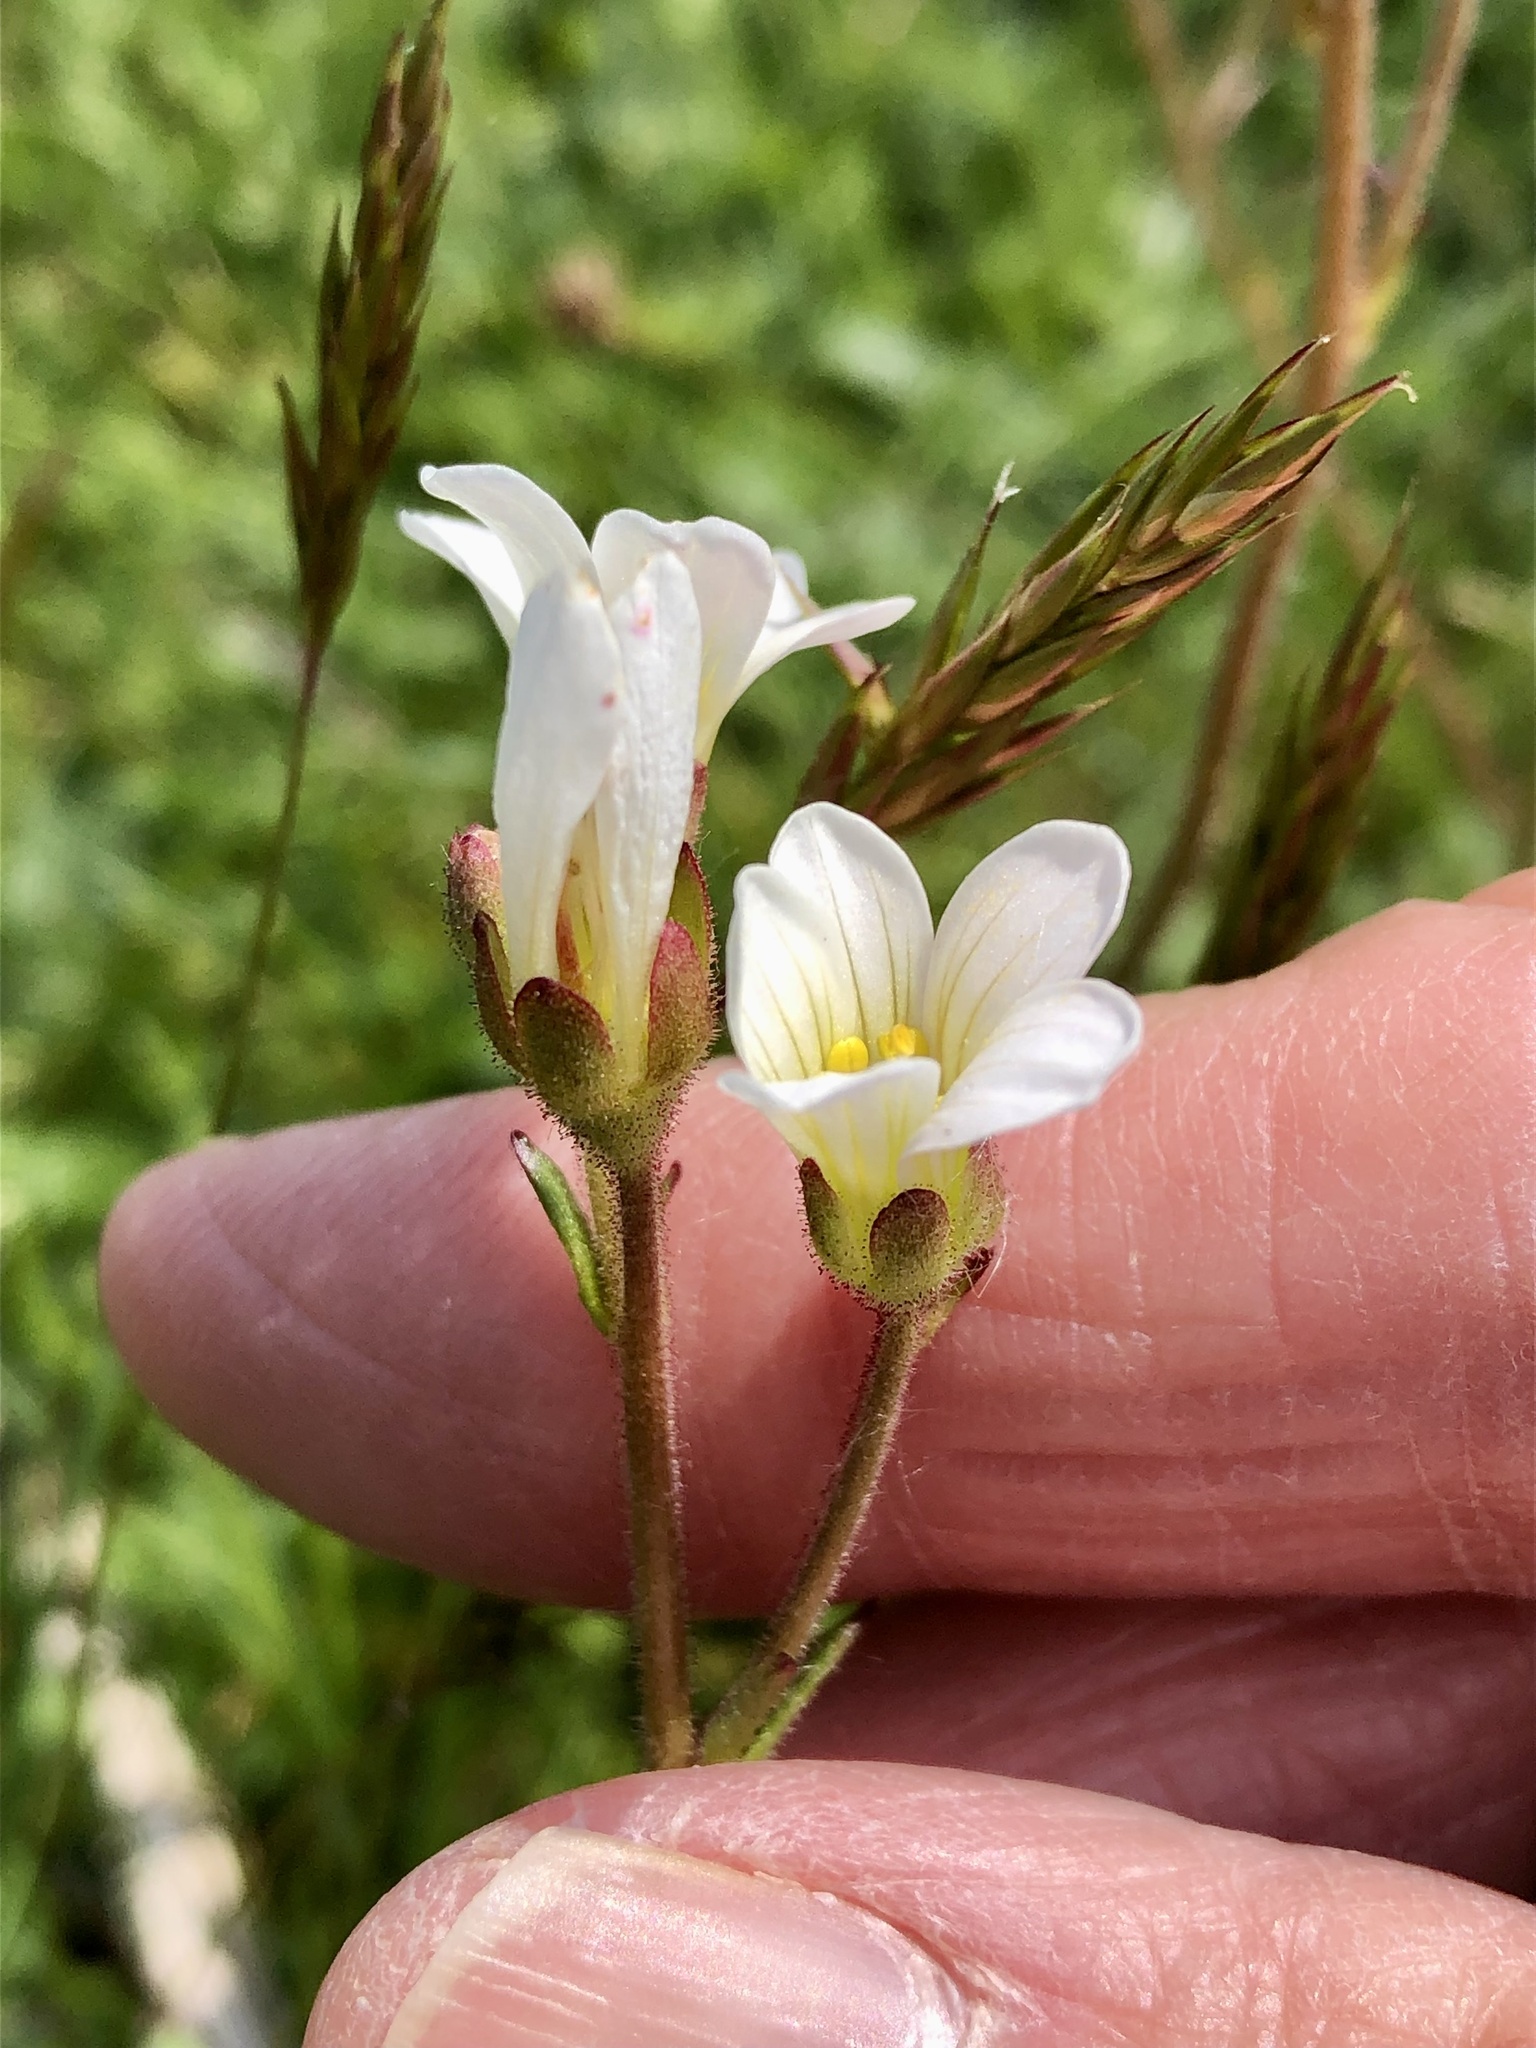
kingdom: Plantae
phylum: Tracheophyta
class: Magnoliopsida
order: Saxifragales
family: Saxifragaceae
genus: Saxifraga
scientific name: Saxifraga granulata
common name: Meadow saxifrage
